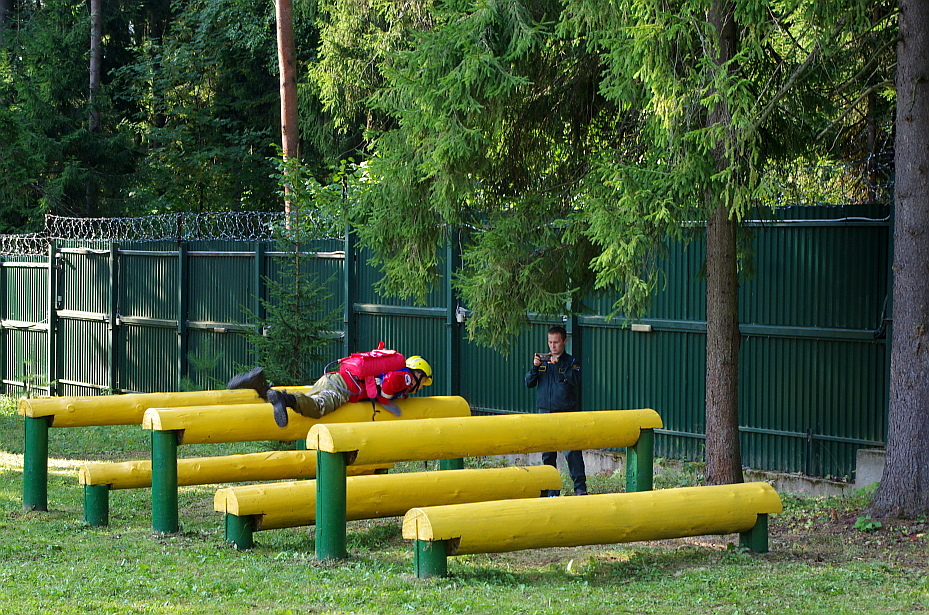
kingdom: Plantae
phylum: Tracheophyta
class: Pinopsida
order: Pinales
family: Pinaceae
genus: Picea
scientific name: Picea abies
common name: Norway spruce
